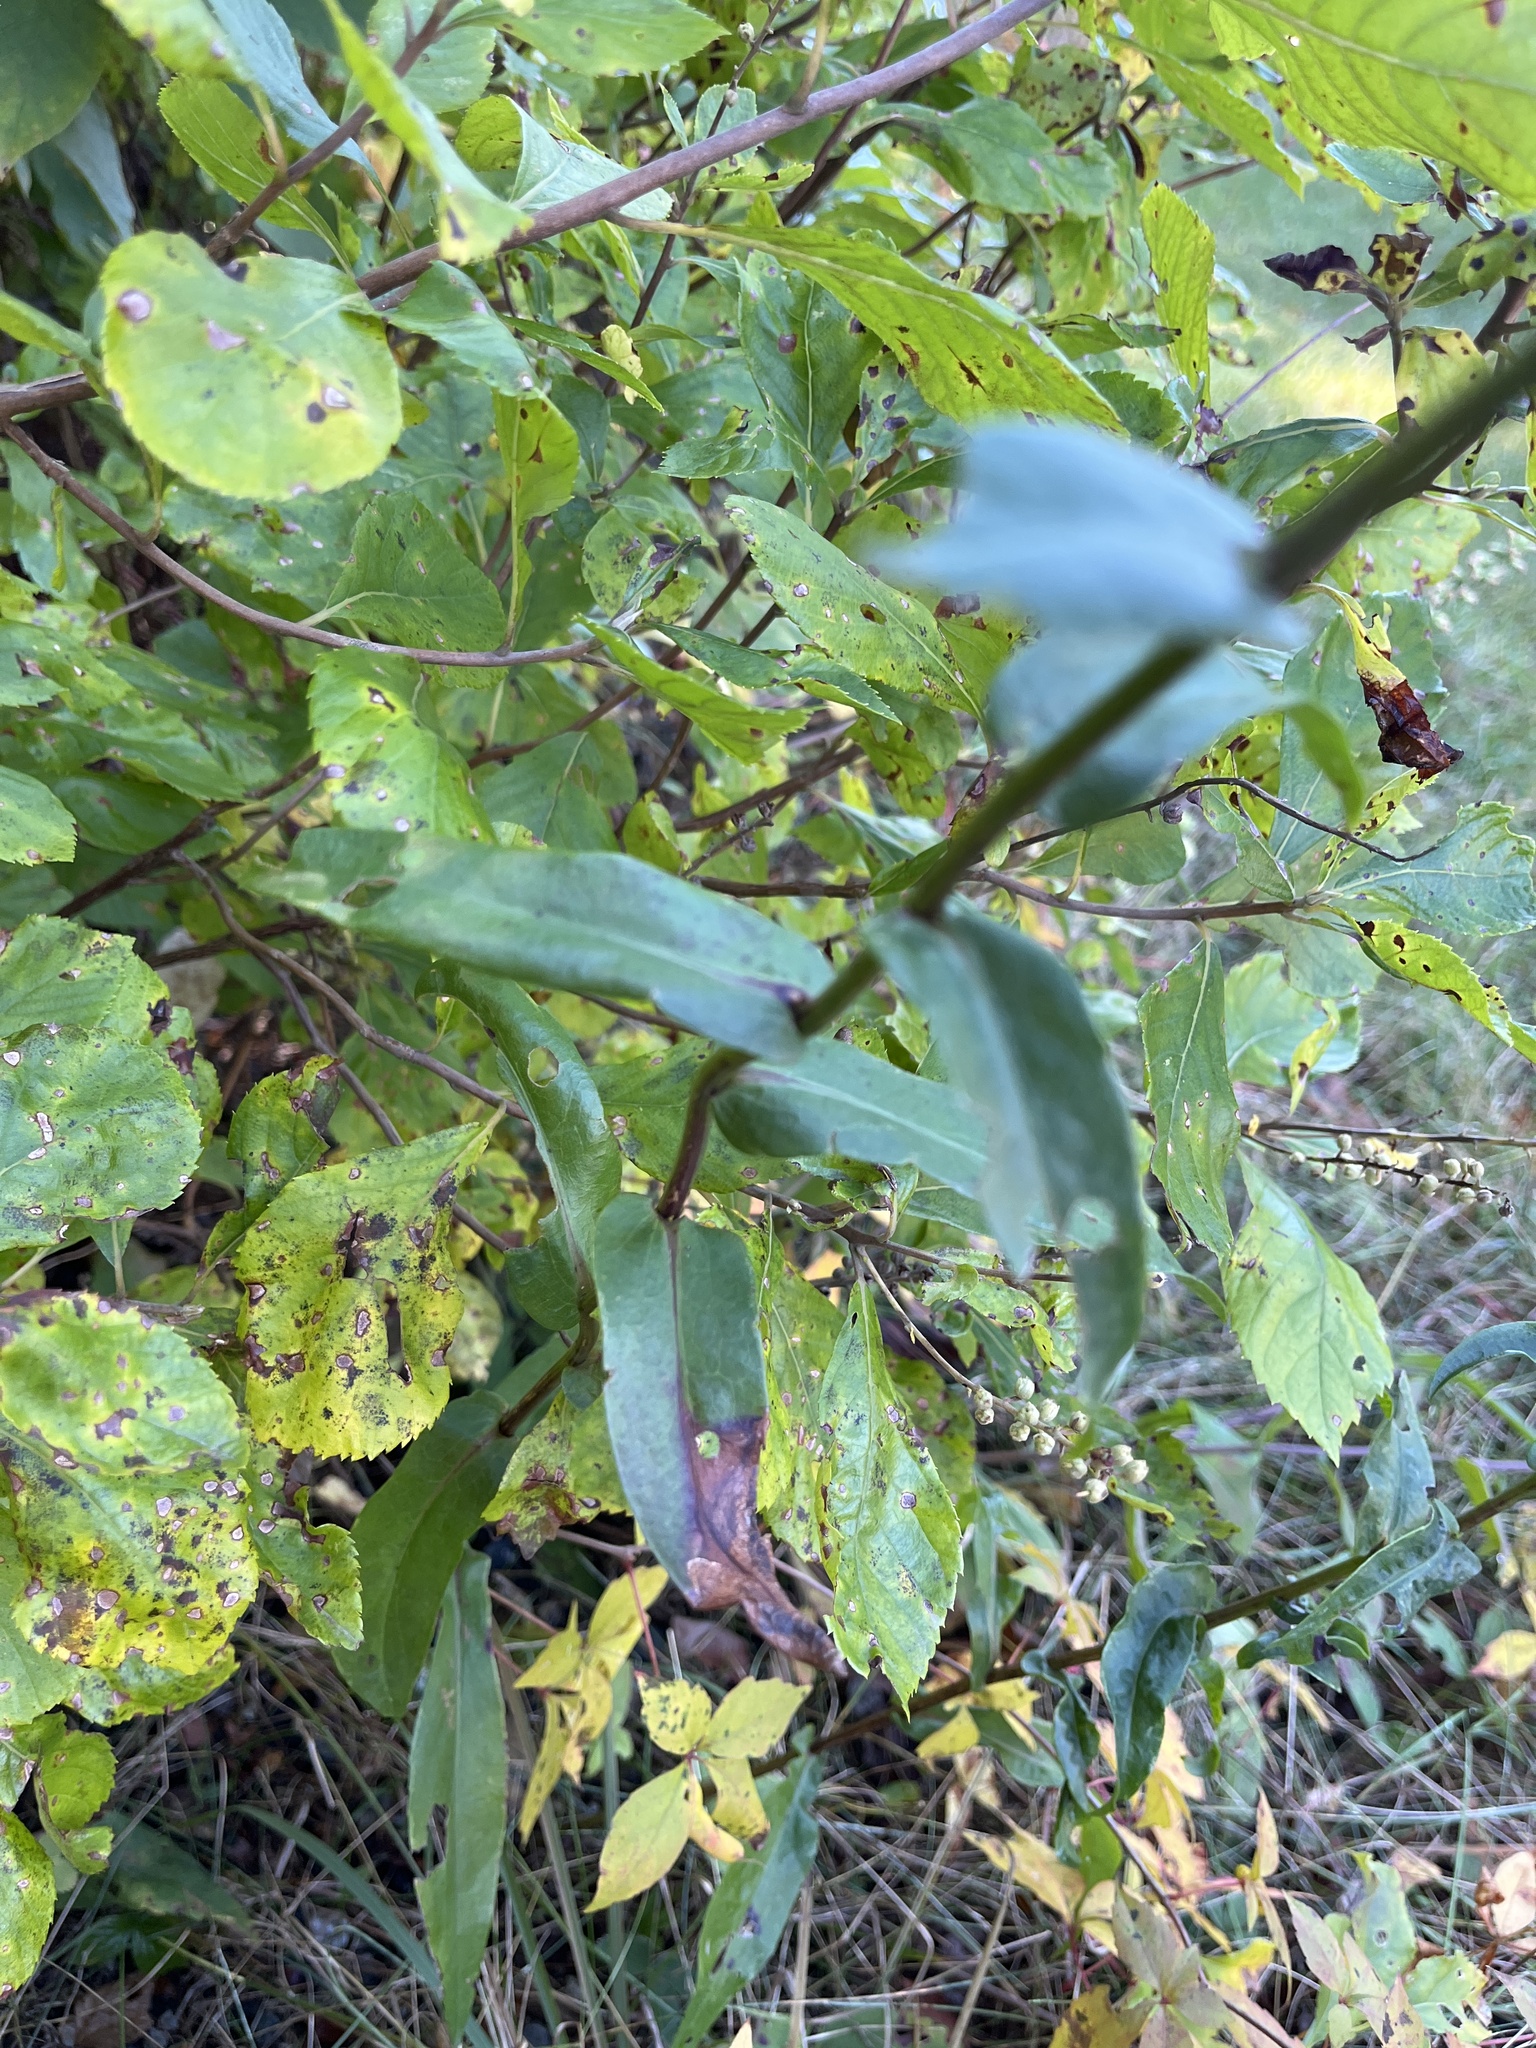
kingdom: Plantae
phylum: Tracheophyta
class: Magnoliopsida
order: Asterales
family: Asteraceae
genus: Symphyotrichum
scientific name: Symphyotrichum laeve
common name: Glaucous aster
